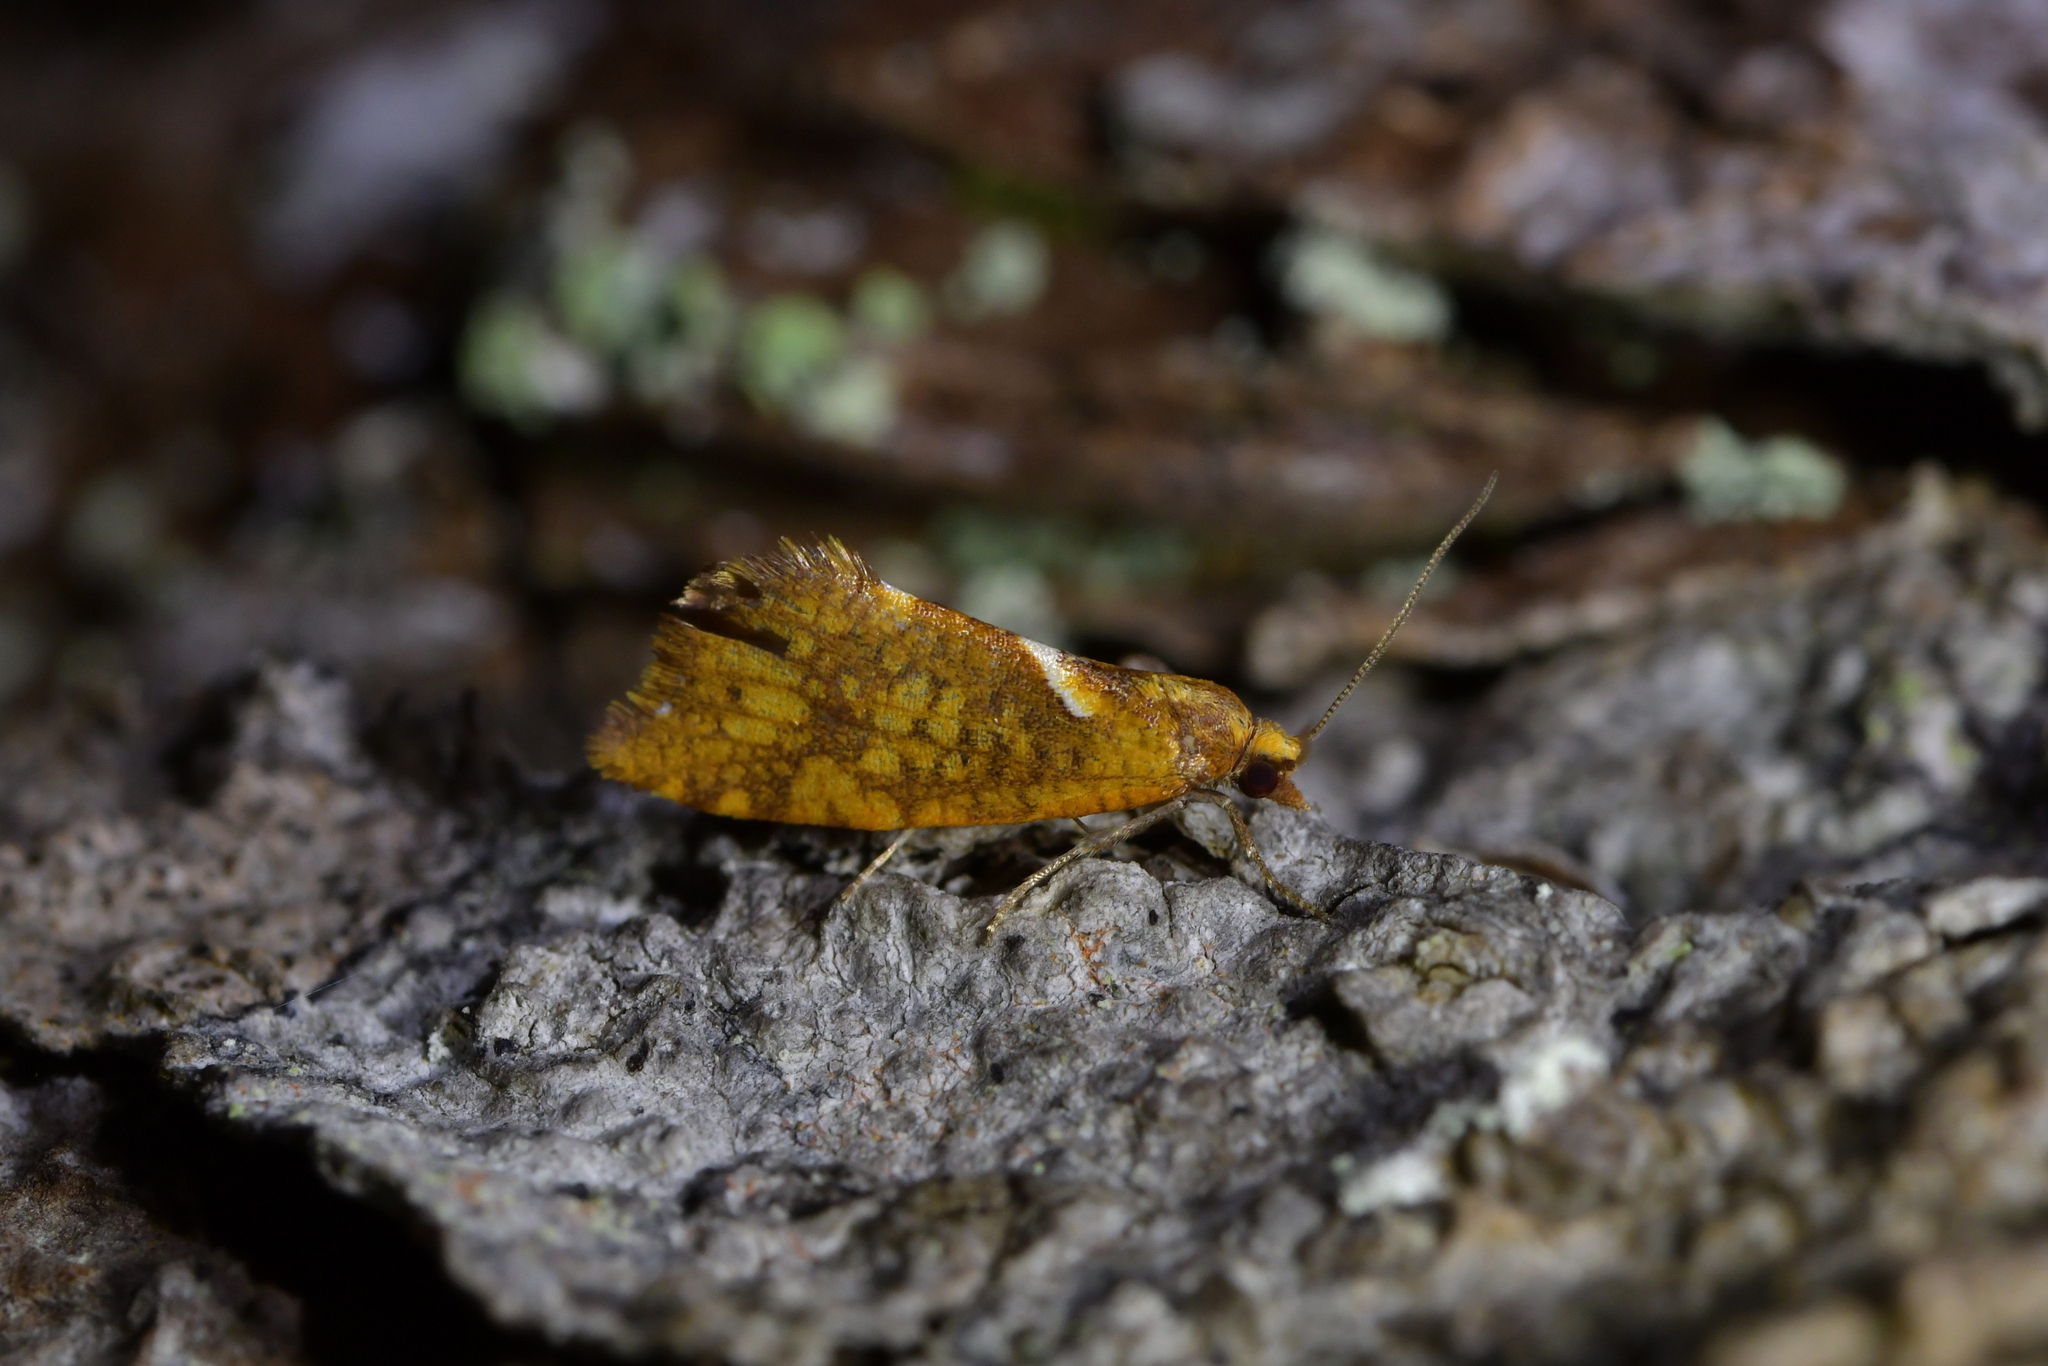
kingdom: Animalia
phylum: Arthropoda
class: Insecta
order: Lepidoptera
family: Tortricidae
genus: Pyrgotis
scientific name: Pyrgotis pyramidias
